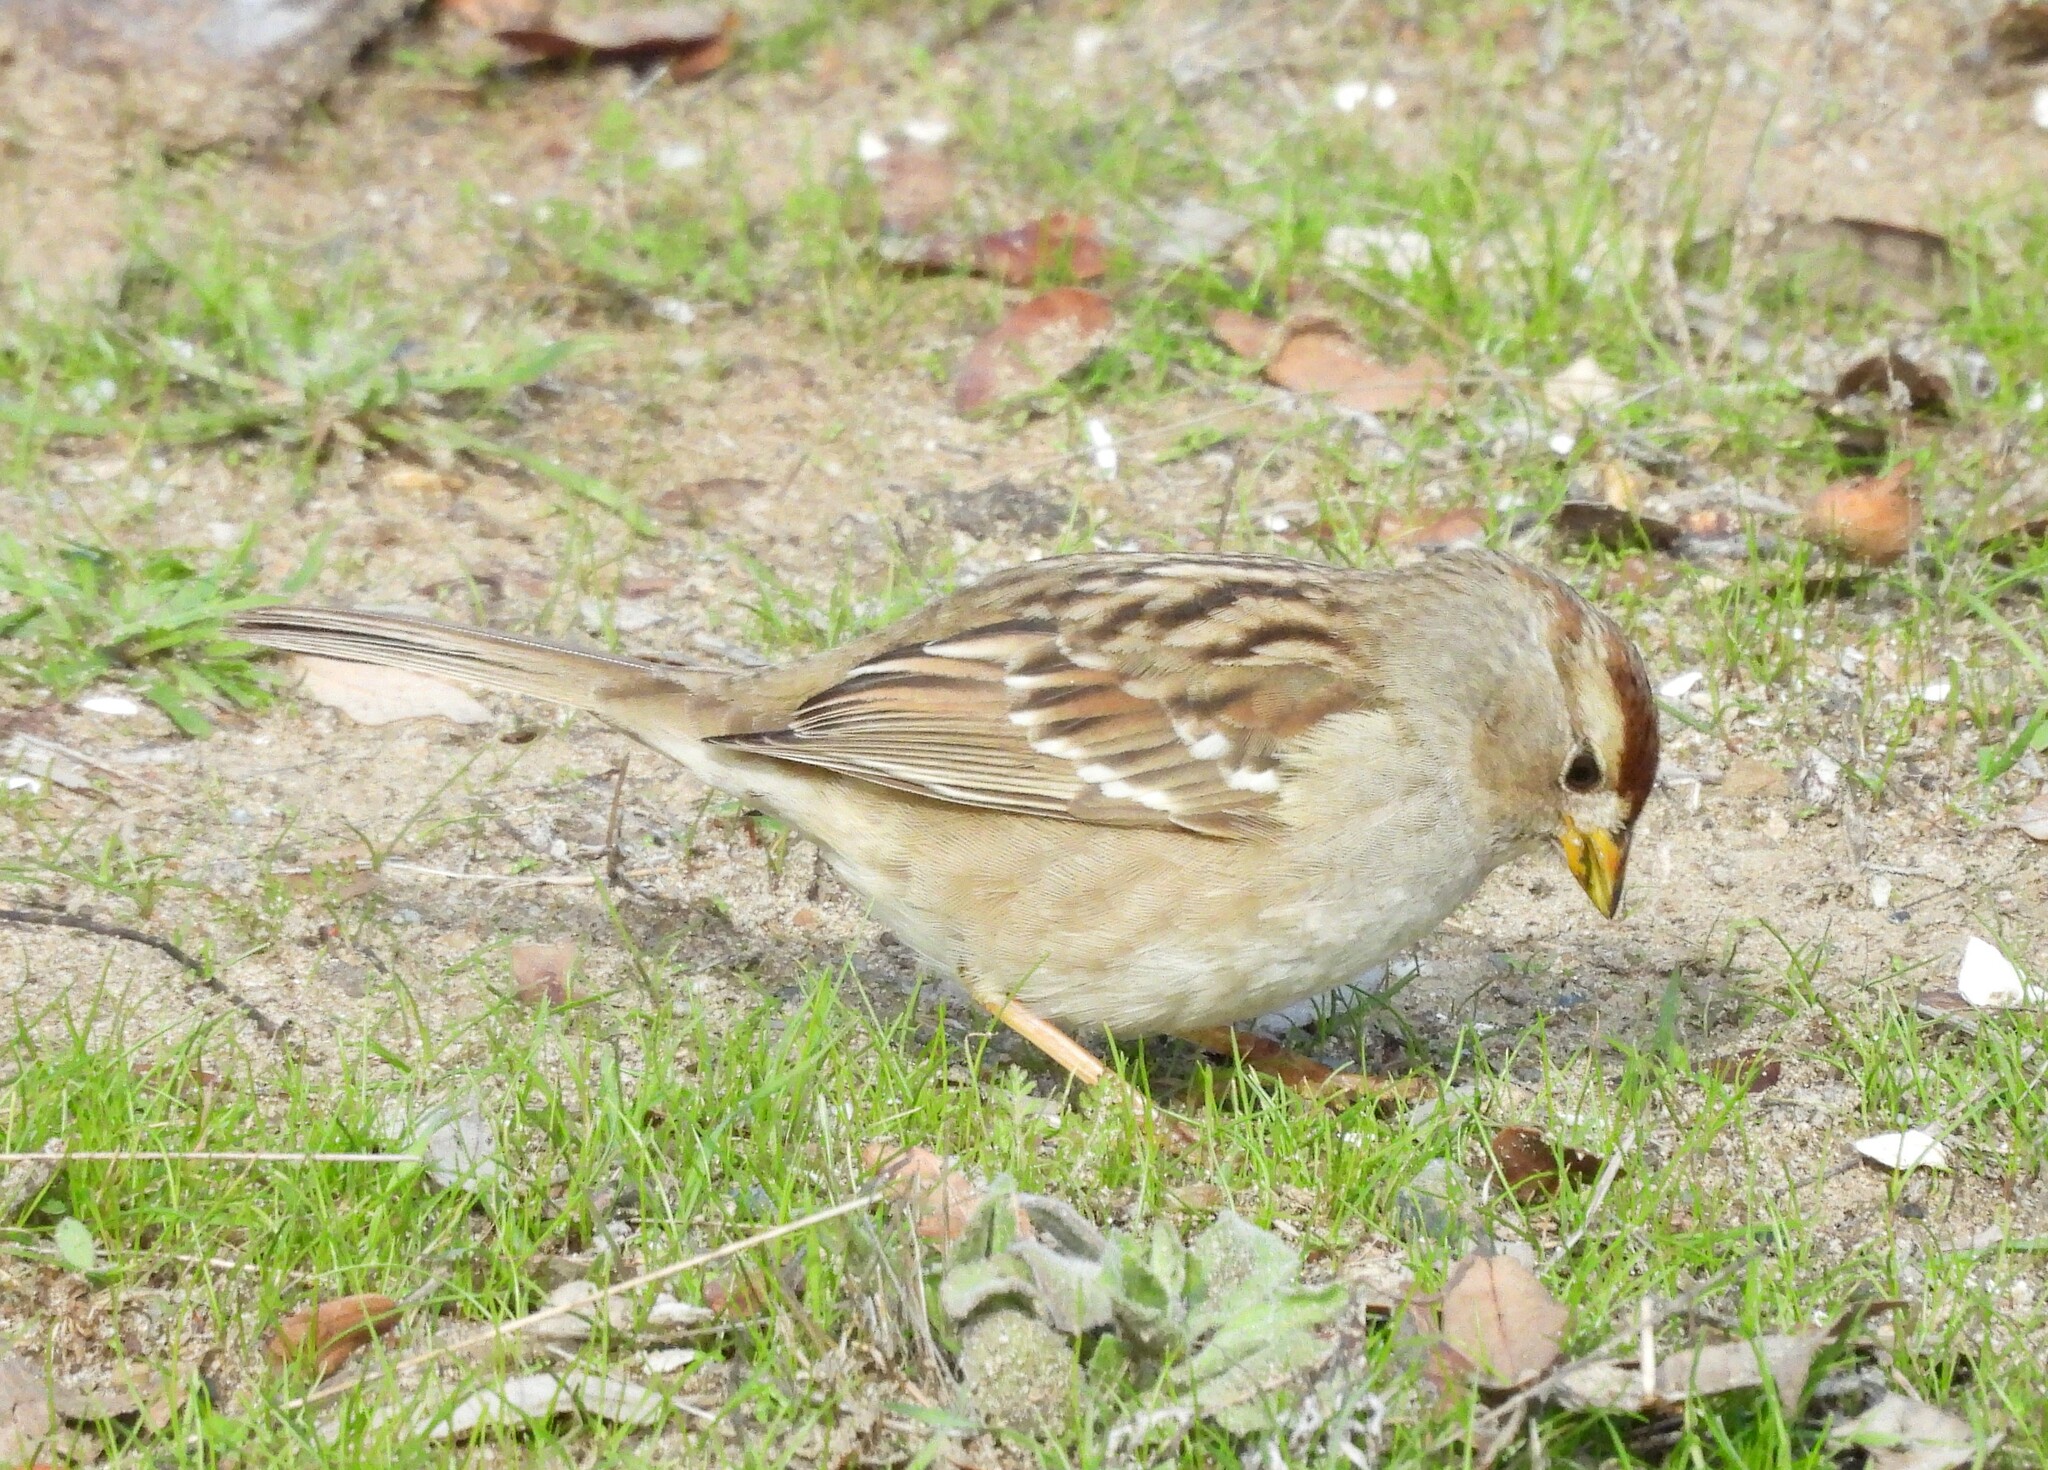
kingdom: Animalia
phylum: Chordata
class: Aves
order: Passeriformes
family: Passerellidae
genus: Zonotrichia
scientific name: Zonotrichia leucophrys
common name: White-crowned sparrow
